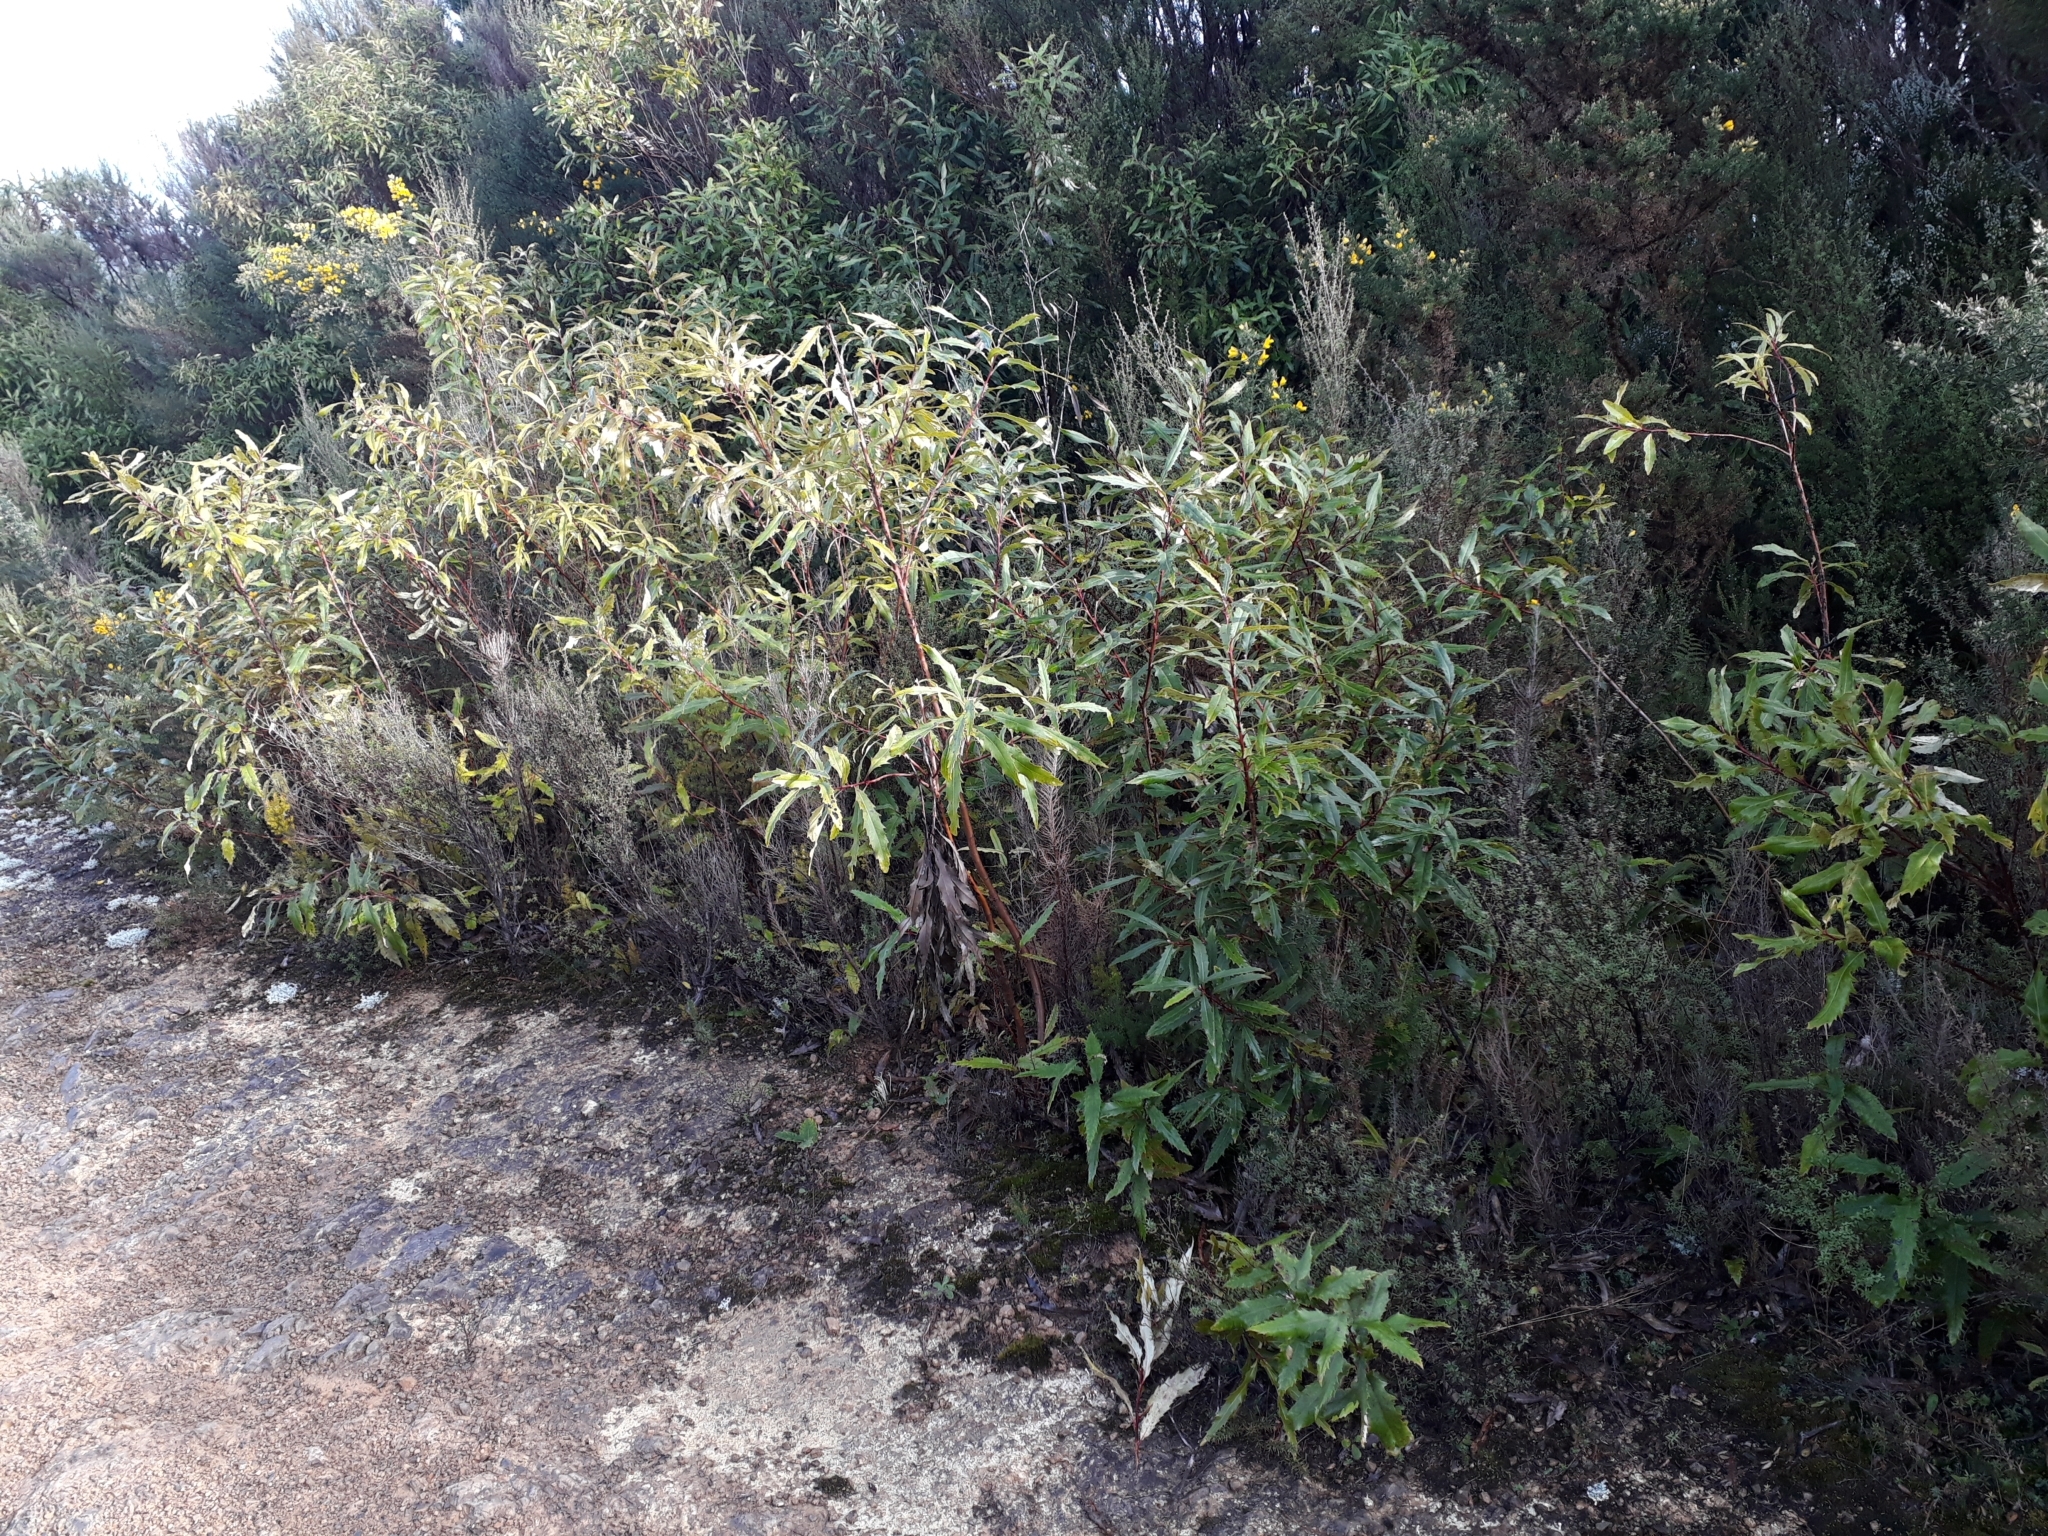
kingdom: Plantae
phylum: Tracheophyta
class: Magnoliopsida
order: Proteales
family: Proteaceae
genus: Lomatia
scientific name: Lomatia fraseri
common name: Forest lomatia
